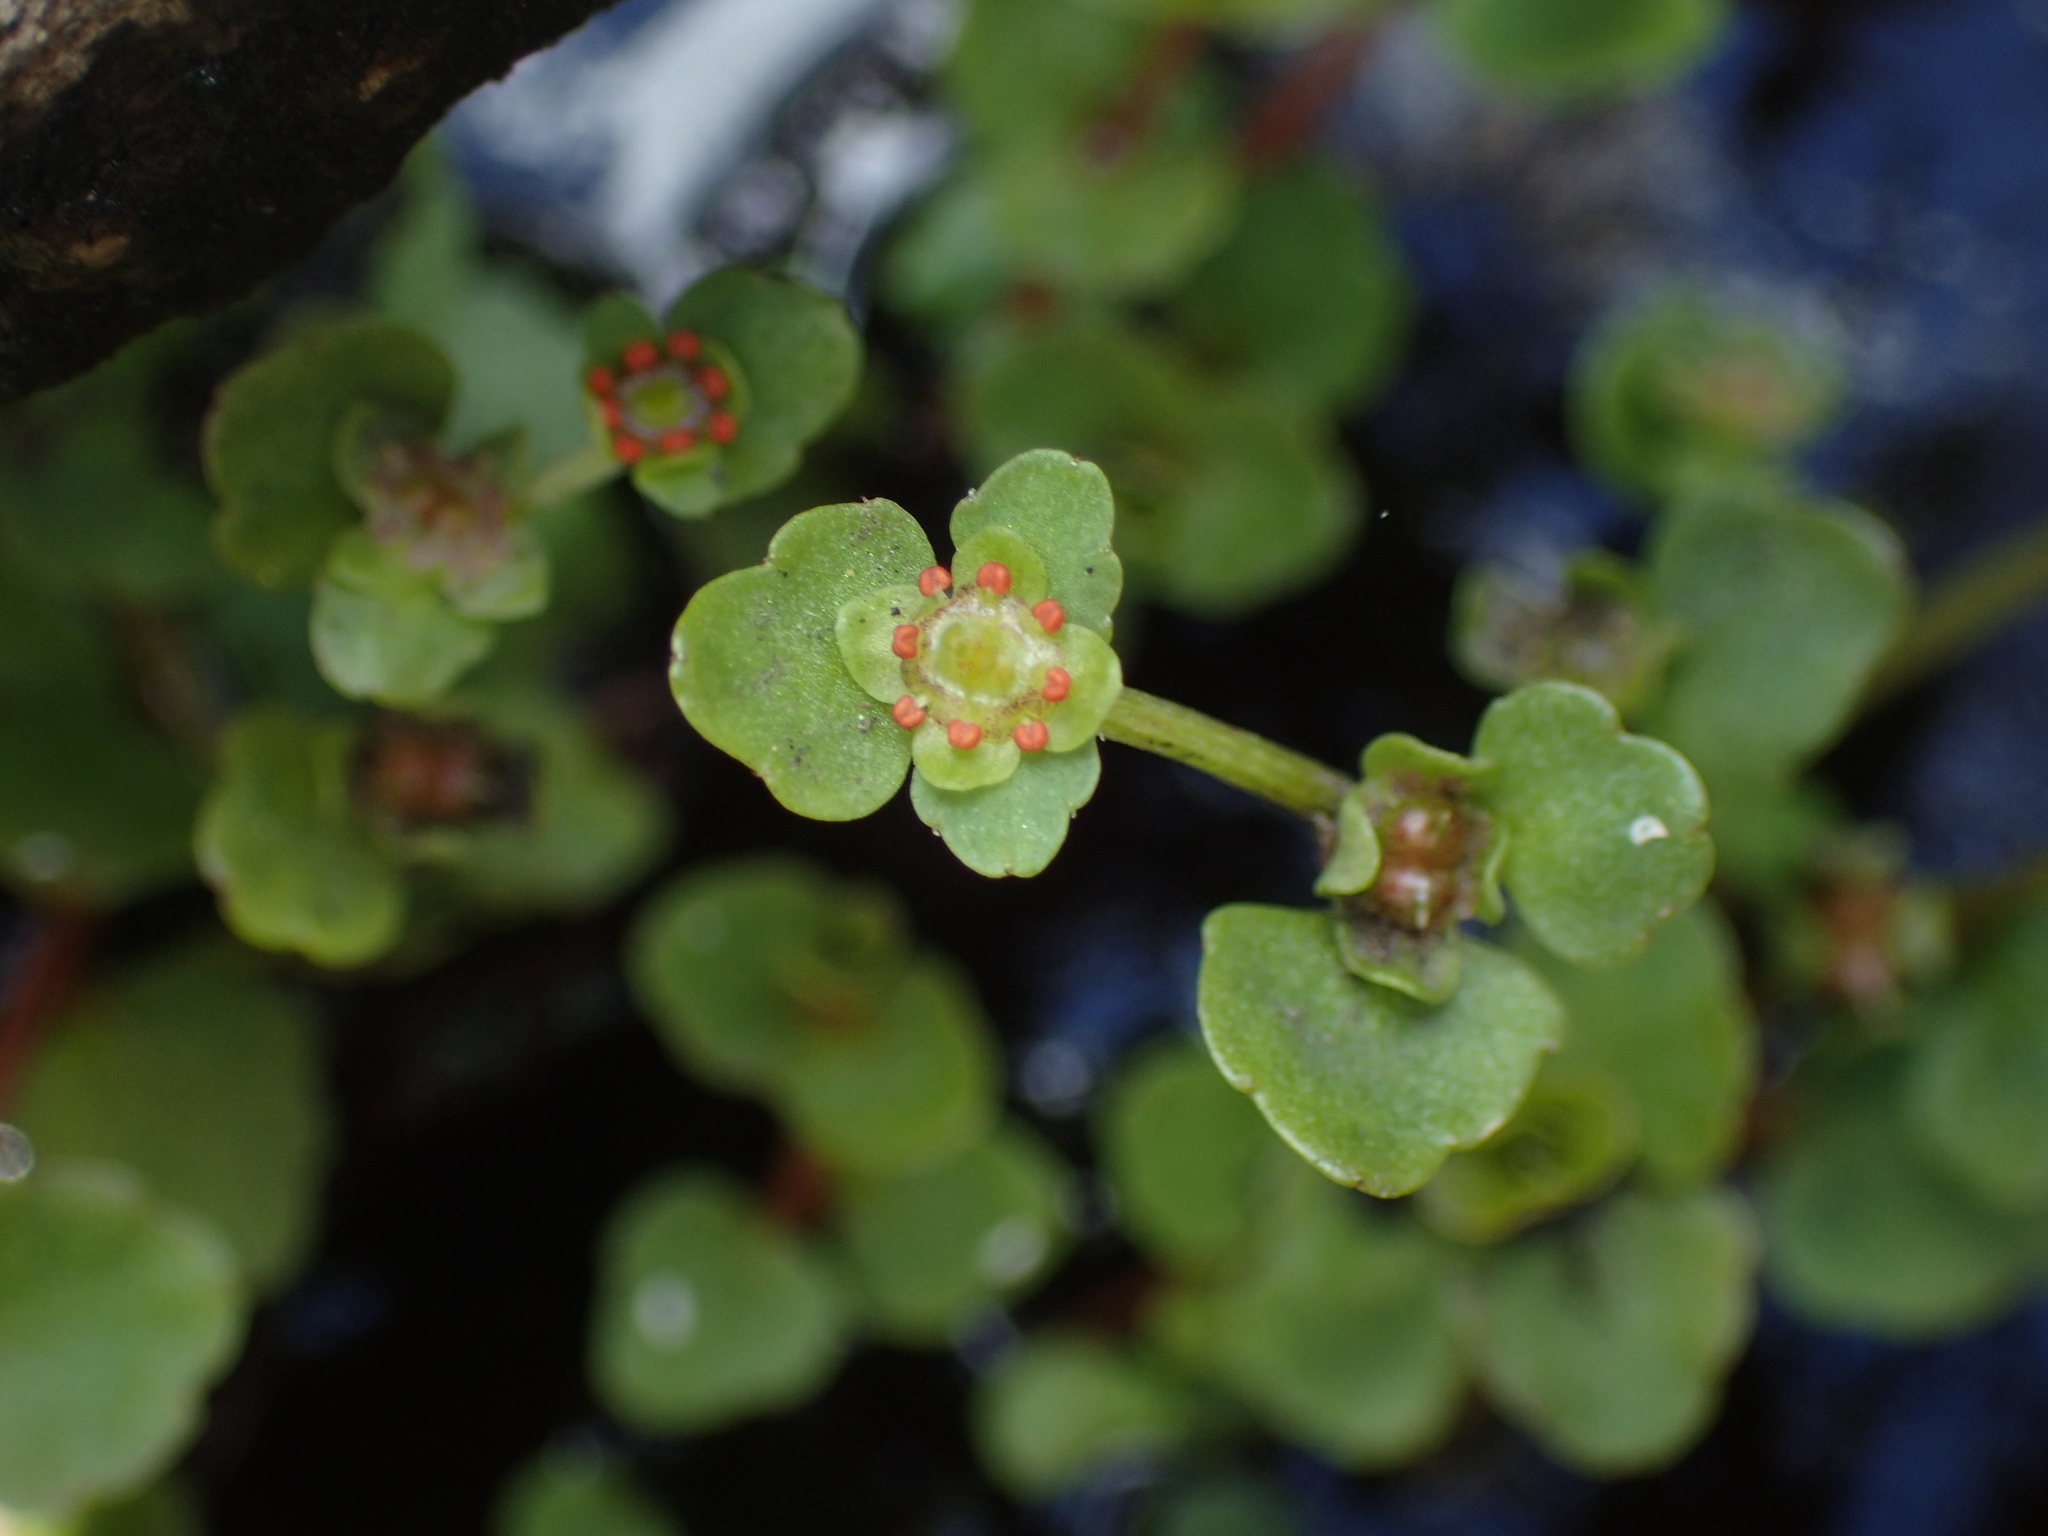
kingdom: Plantae
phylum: Tracheophyta
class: Magnoliopsida
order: Saxifragales
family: Saxifragaceae
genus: Chrysosplenium
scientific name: Chrysosplenium americanum
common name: American golden-saxifrage
